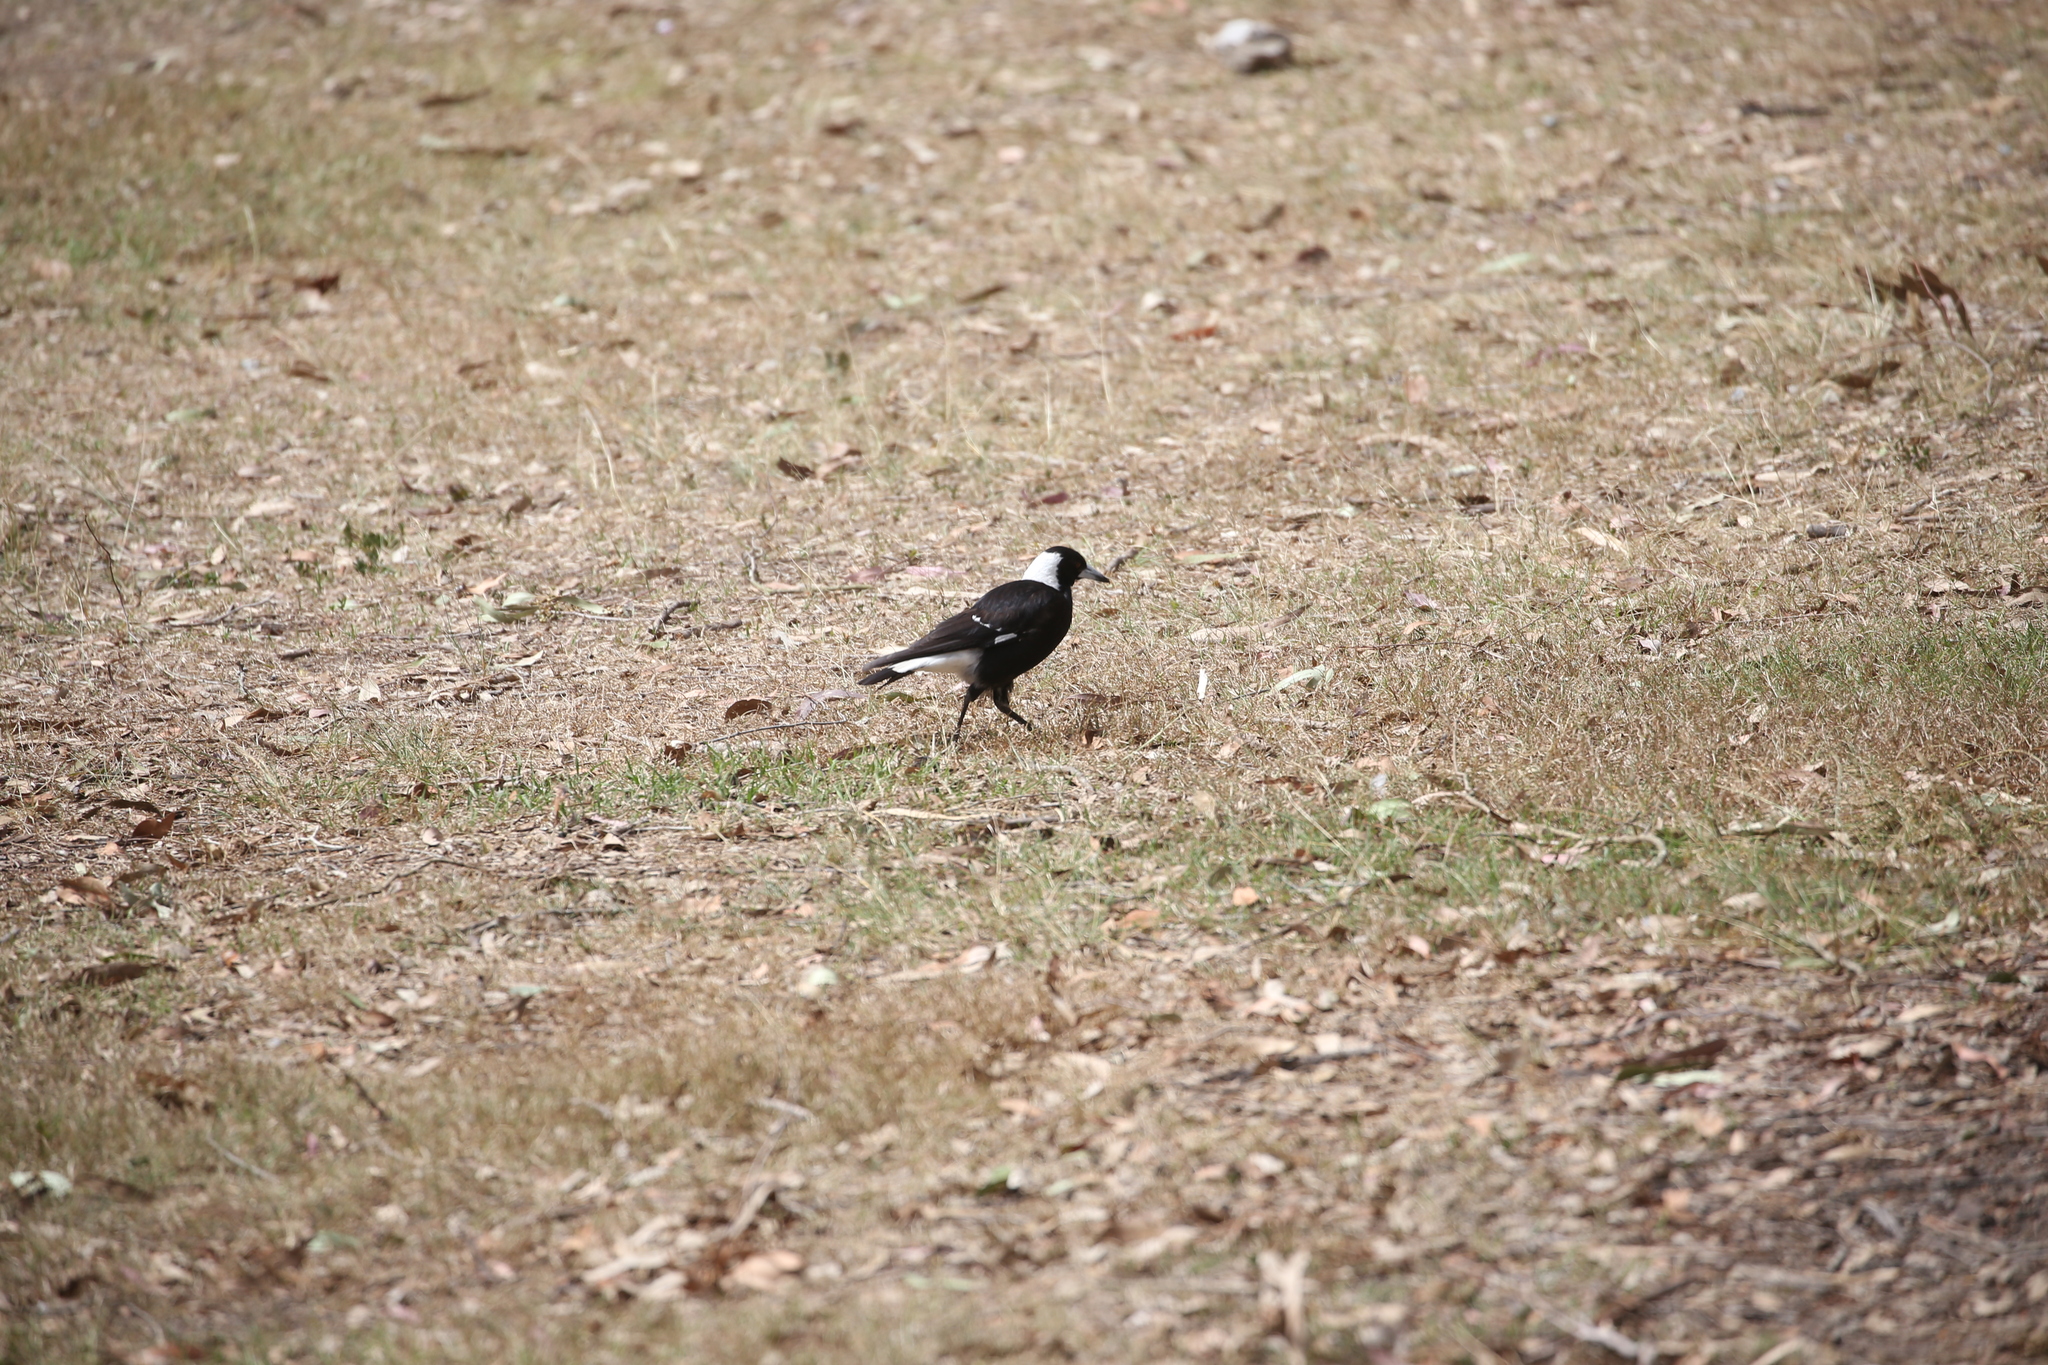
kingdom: Animalia
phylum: Chordata
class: Aves
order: Passeriformes
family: Cracticidae
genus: Gymnorhina
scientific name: Gymnorhina tibicen
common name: Australian magpie
